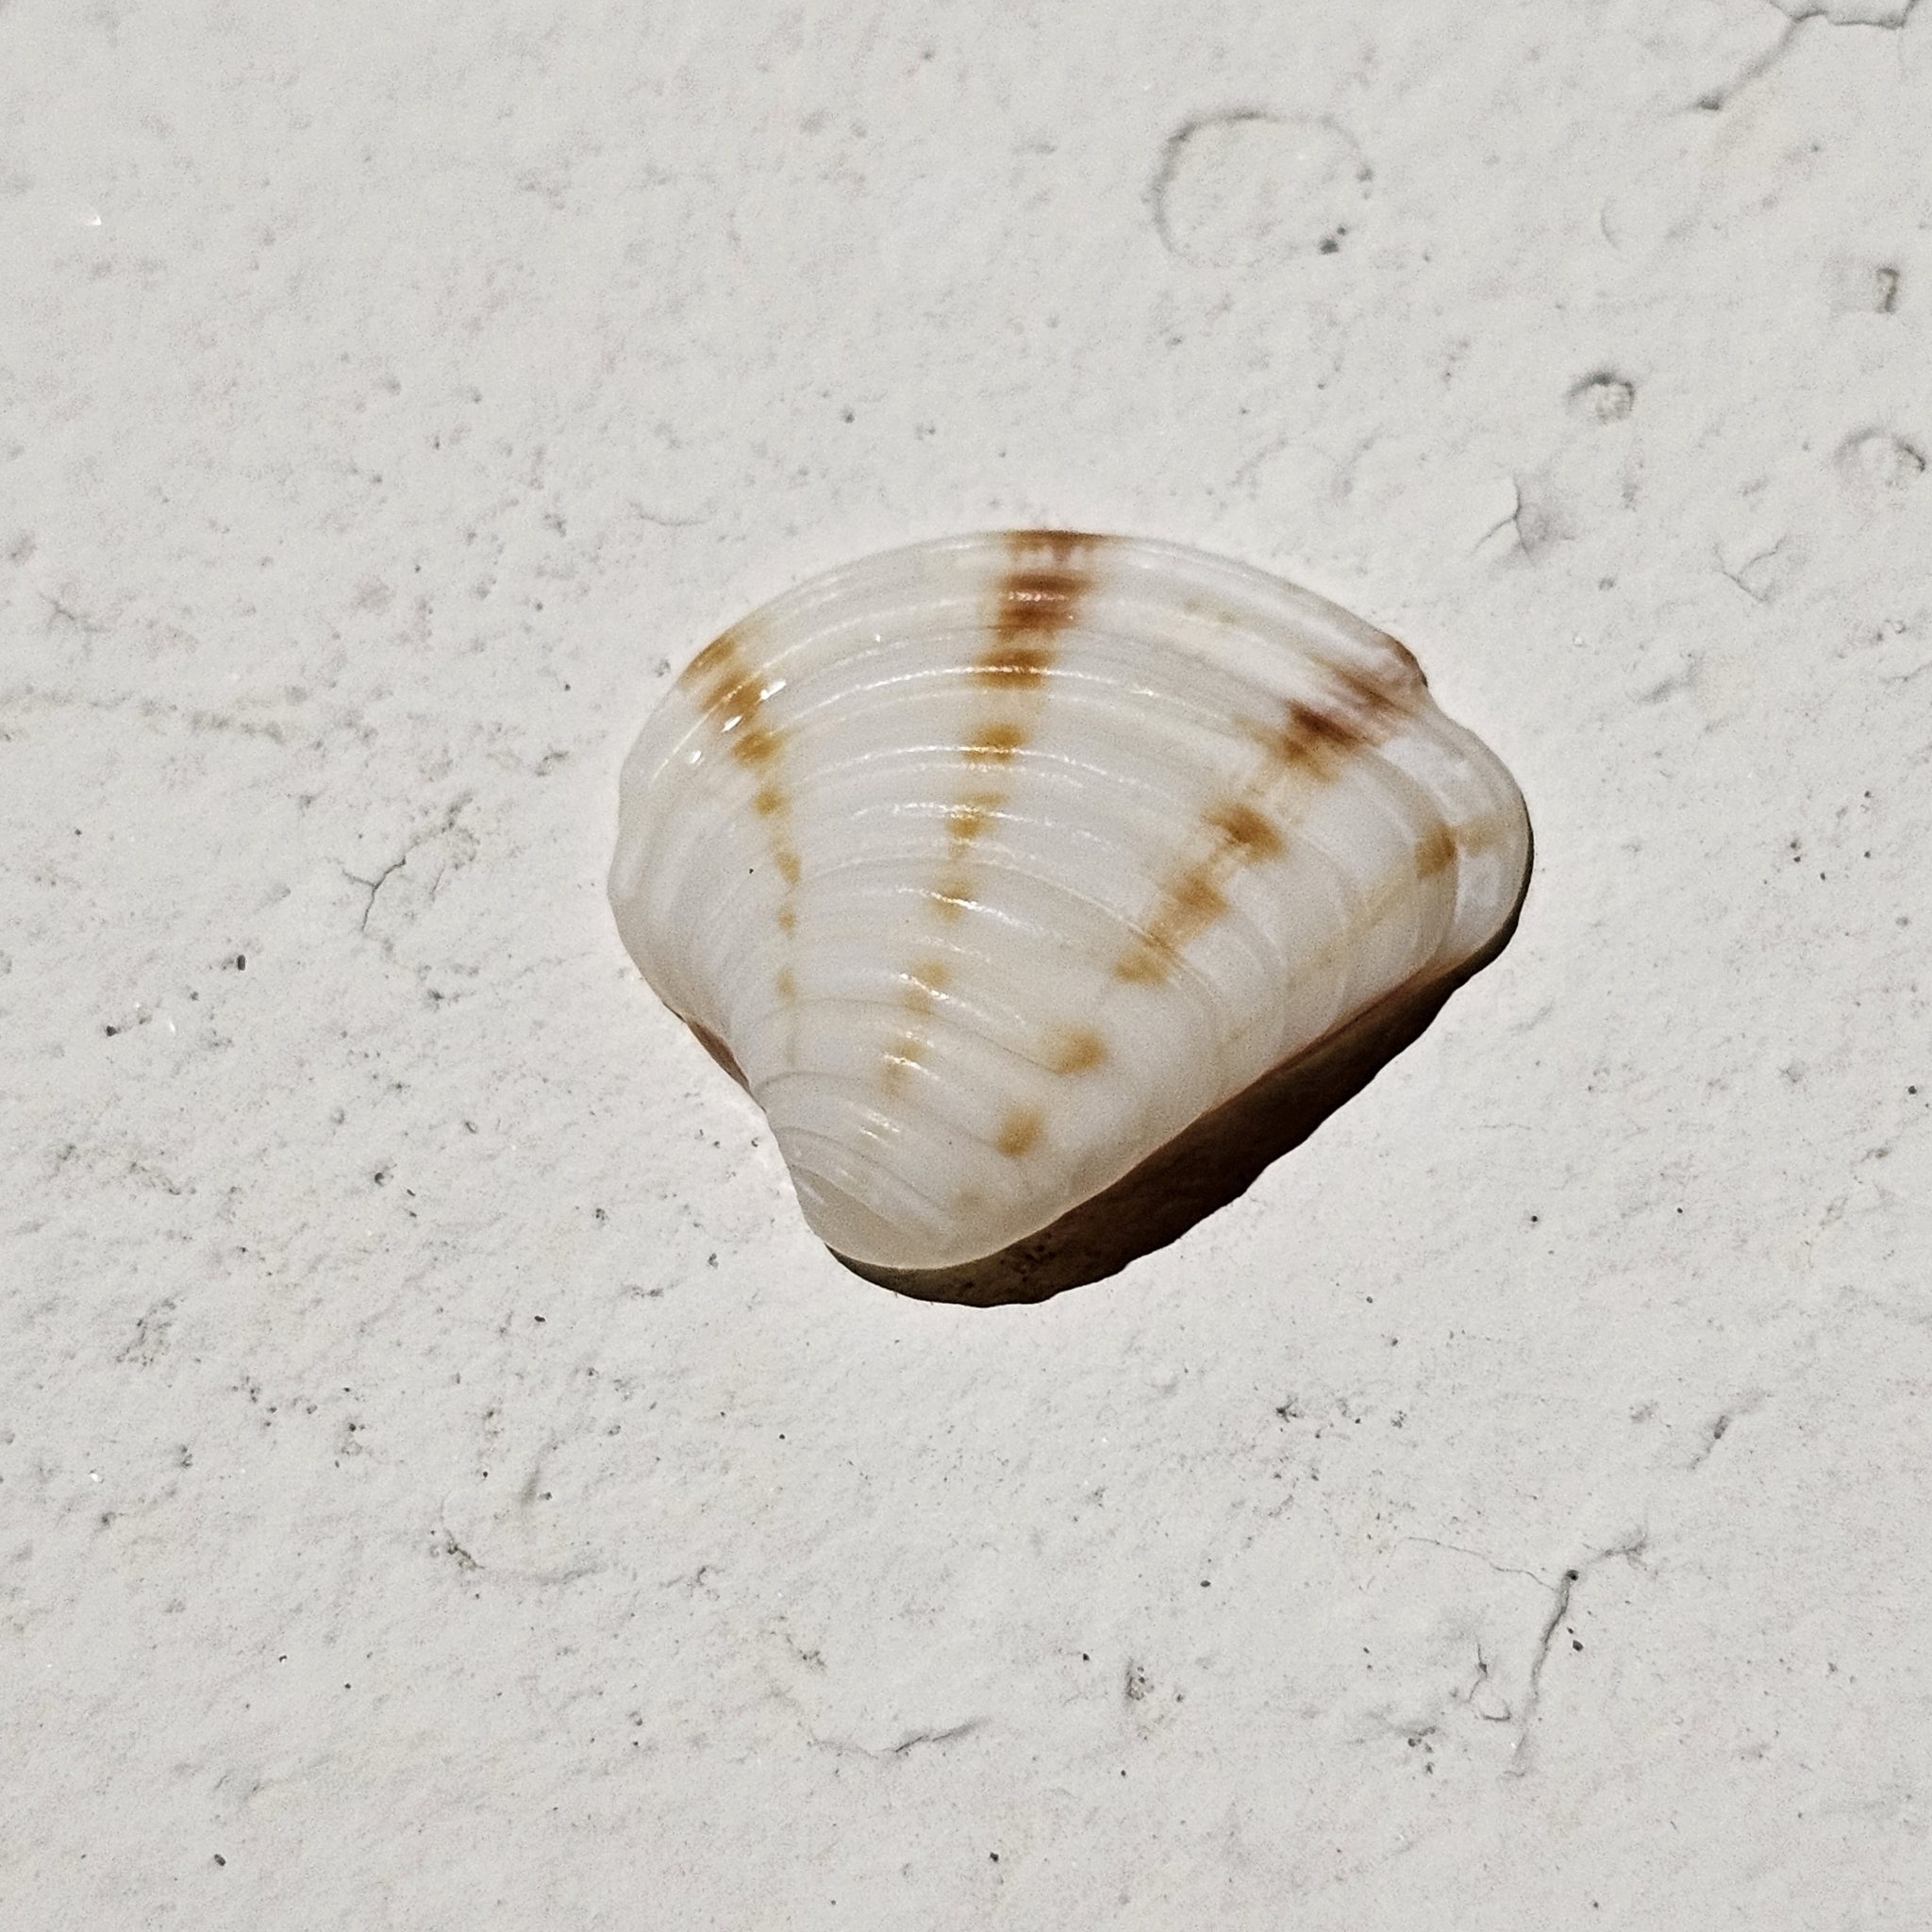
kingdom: Animalia
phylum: Mollusca
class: Bivalvia
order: Venerida
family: Veneridae
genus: Lirophora
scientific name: Lirophora mariae
